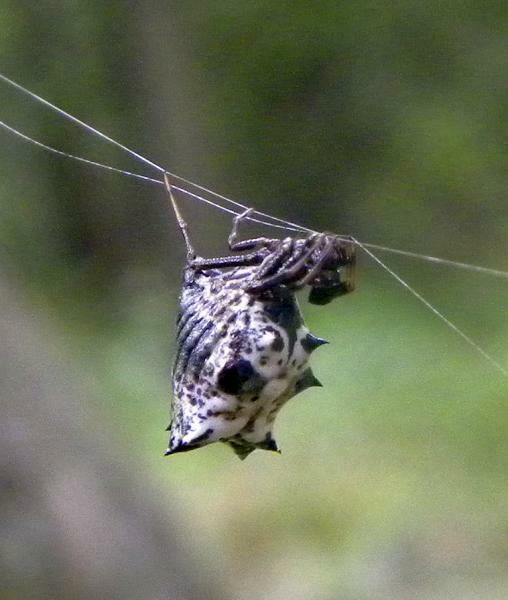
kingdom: Animalia
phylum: Arthropoda
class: Arachnida
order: Araneae
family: Araneidae
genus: Micrathena
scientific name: Micrathena gracilis
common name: Orb weavers
